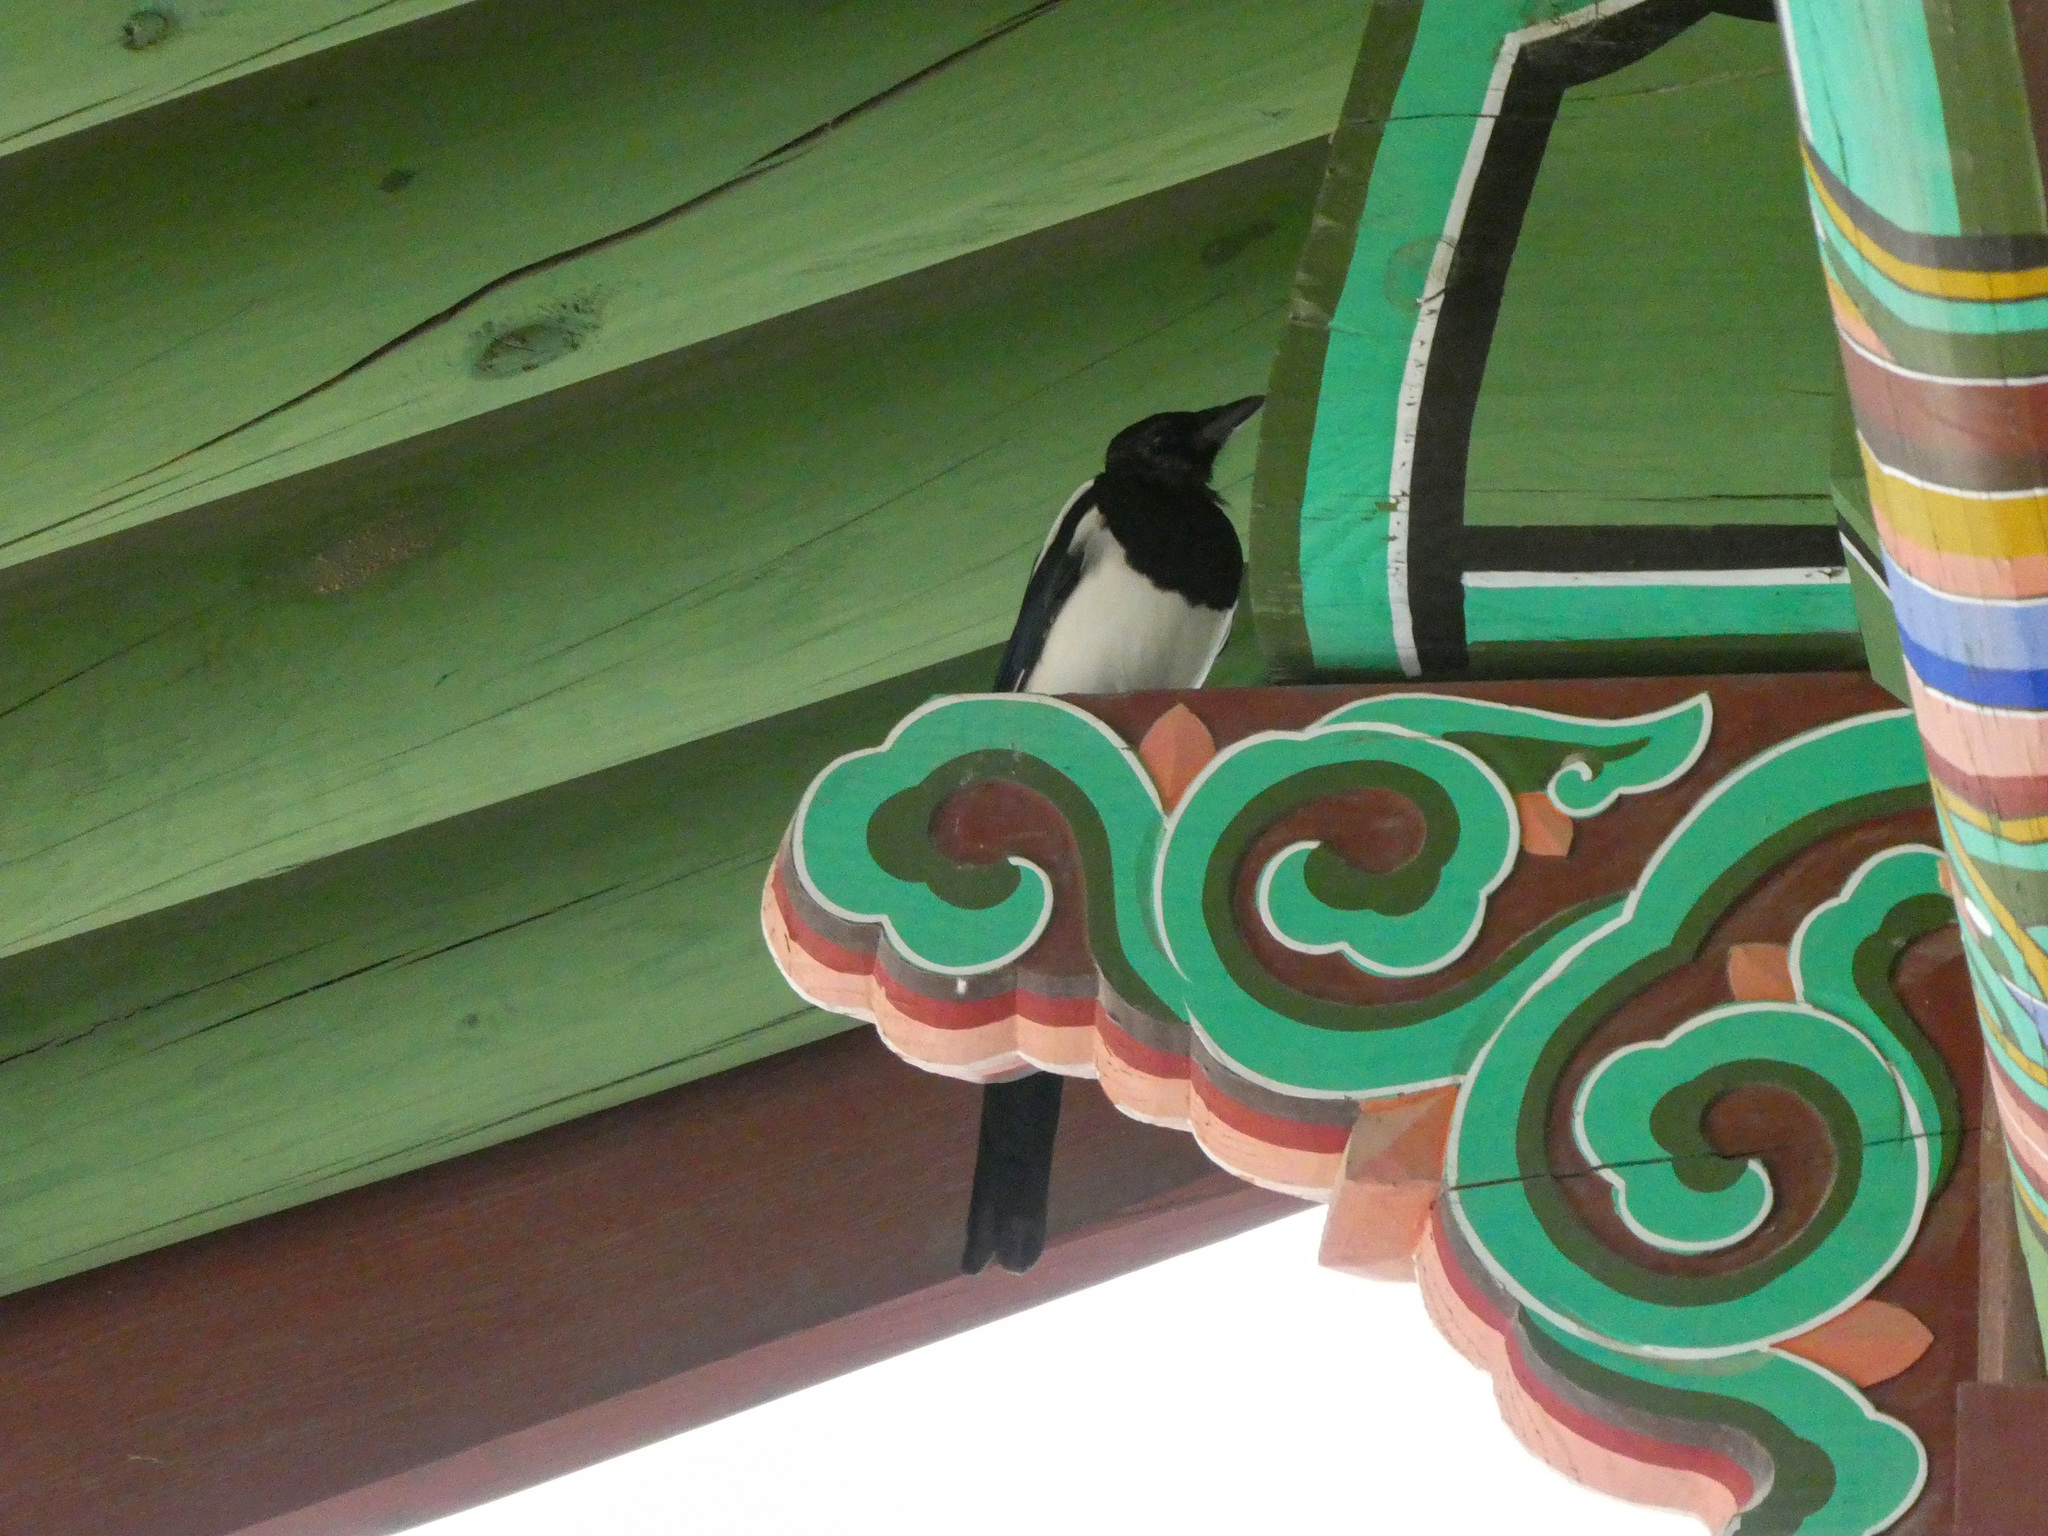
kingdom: Animalia
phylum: Chordata
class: Aves
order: Passeriformes
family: Corvidae
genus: Pica
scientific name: Pica serica
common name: Oriental magpie
